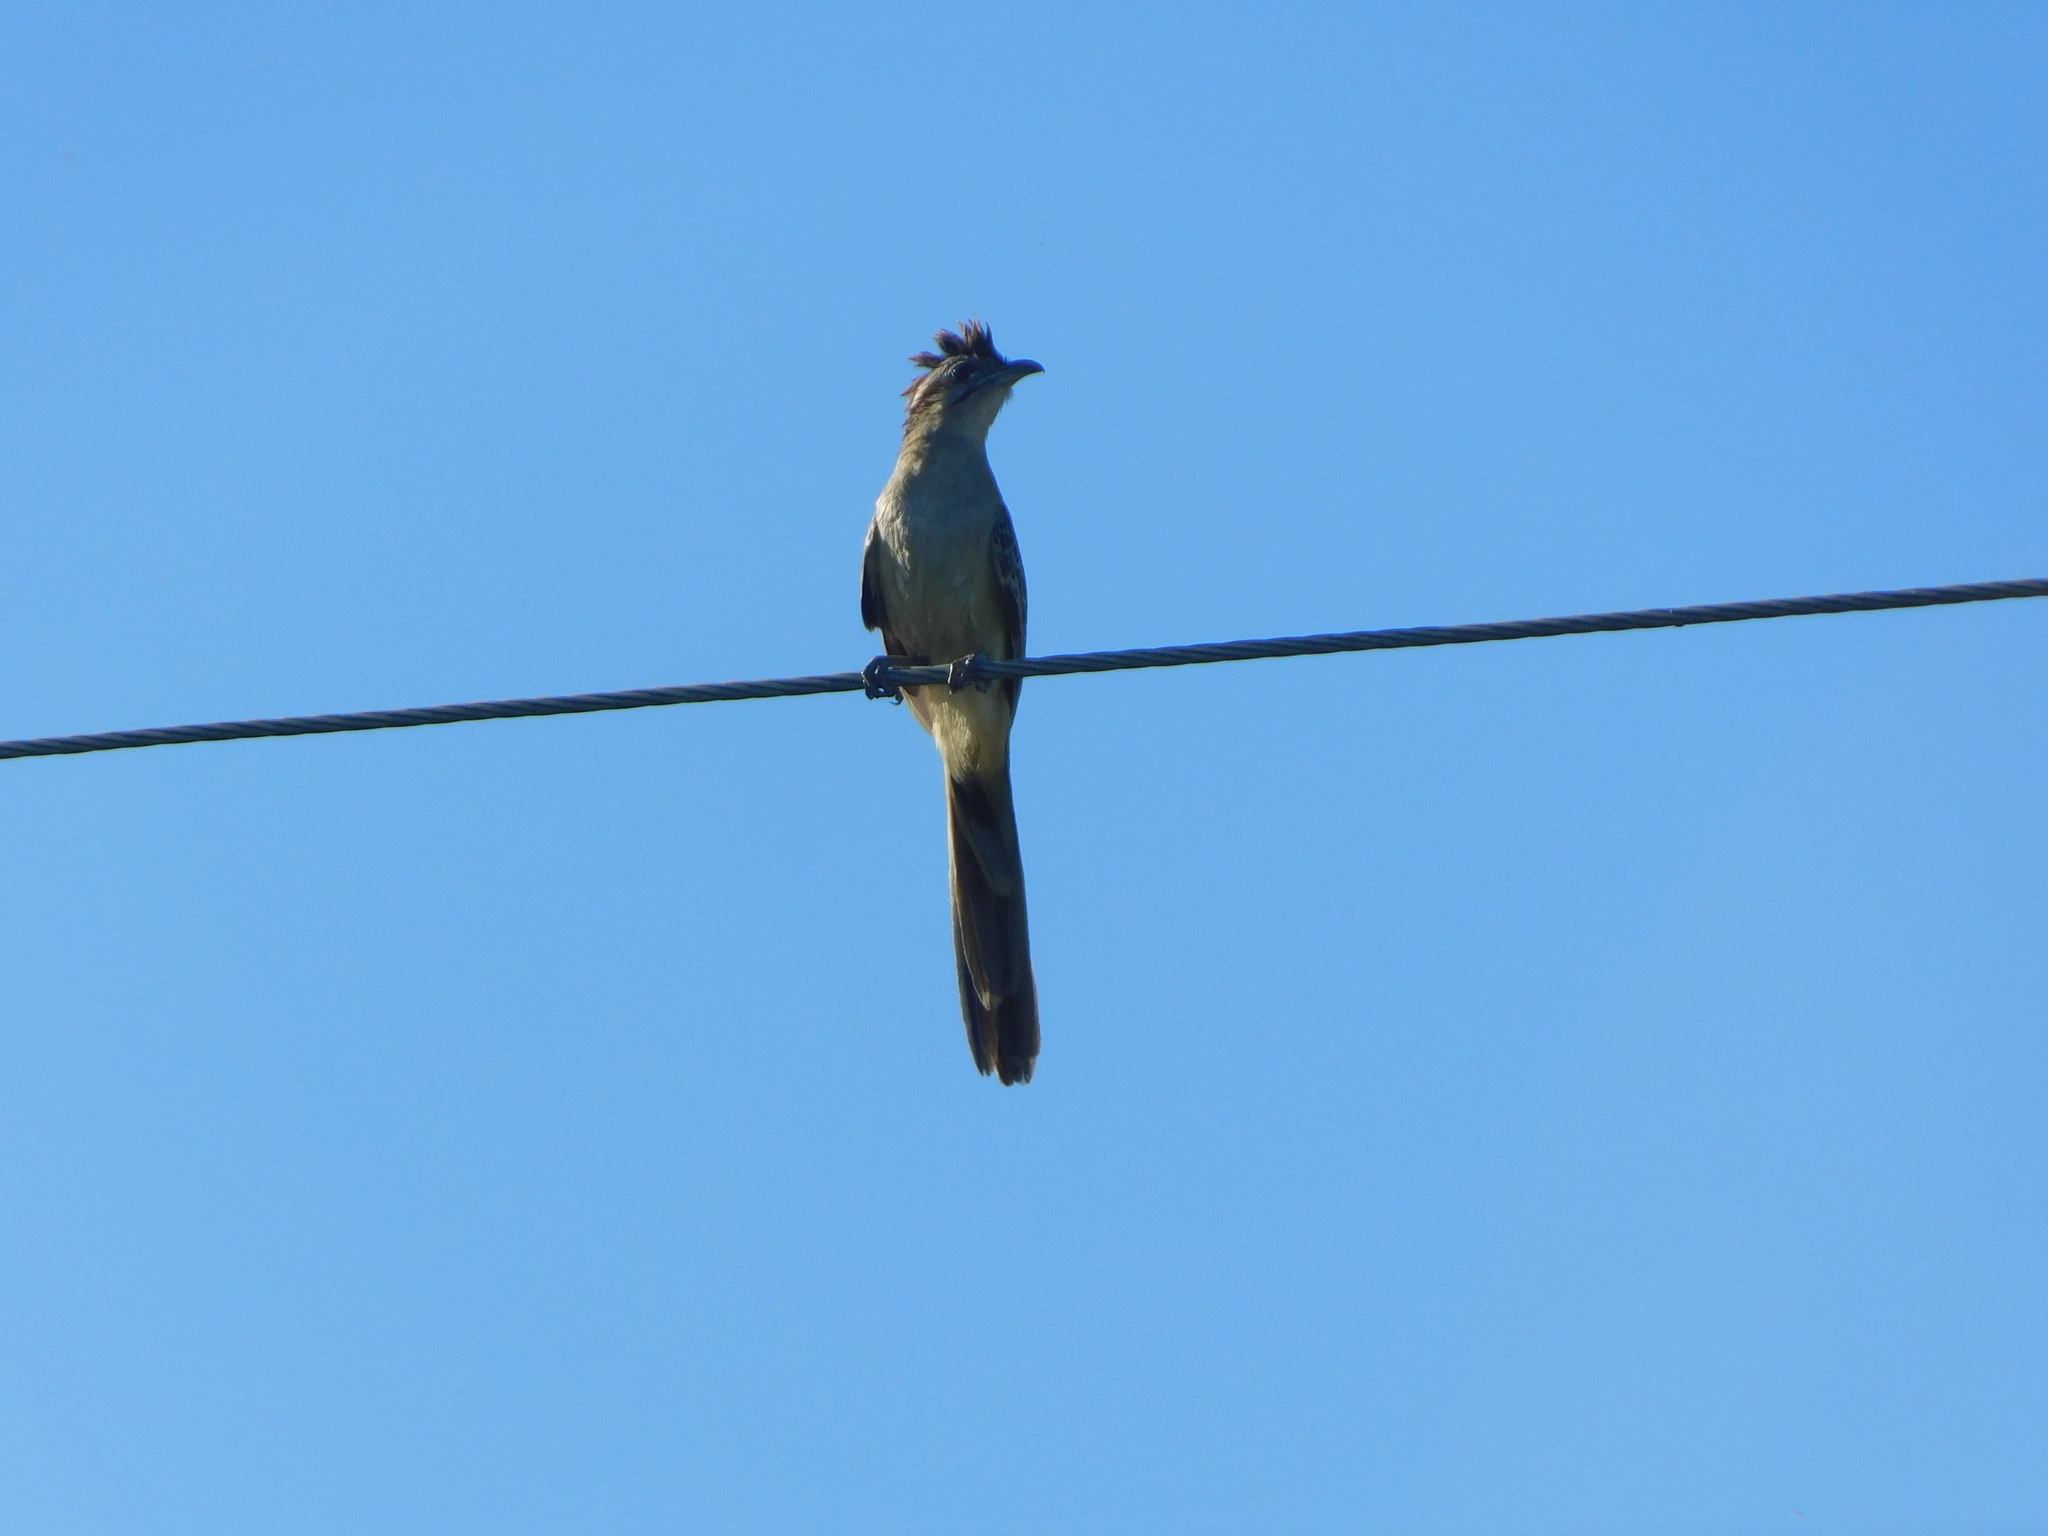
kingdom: Animalia
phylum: Chordata
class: Aves
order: Cuculiformes
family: Cuculidae
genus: Tapera
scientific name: Tapera naevia
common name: Striped cuckoo
